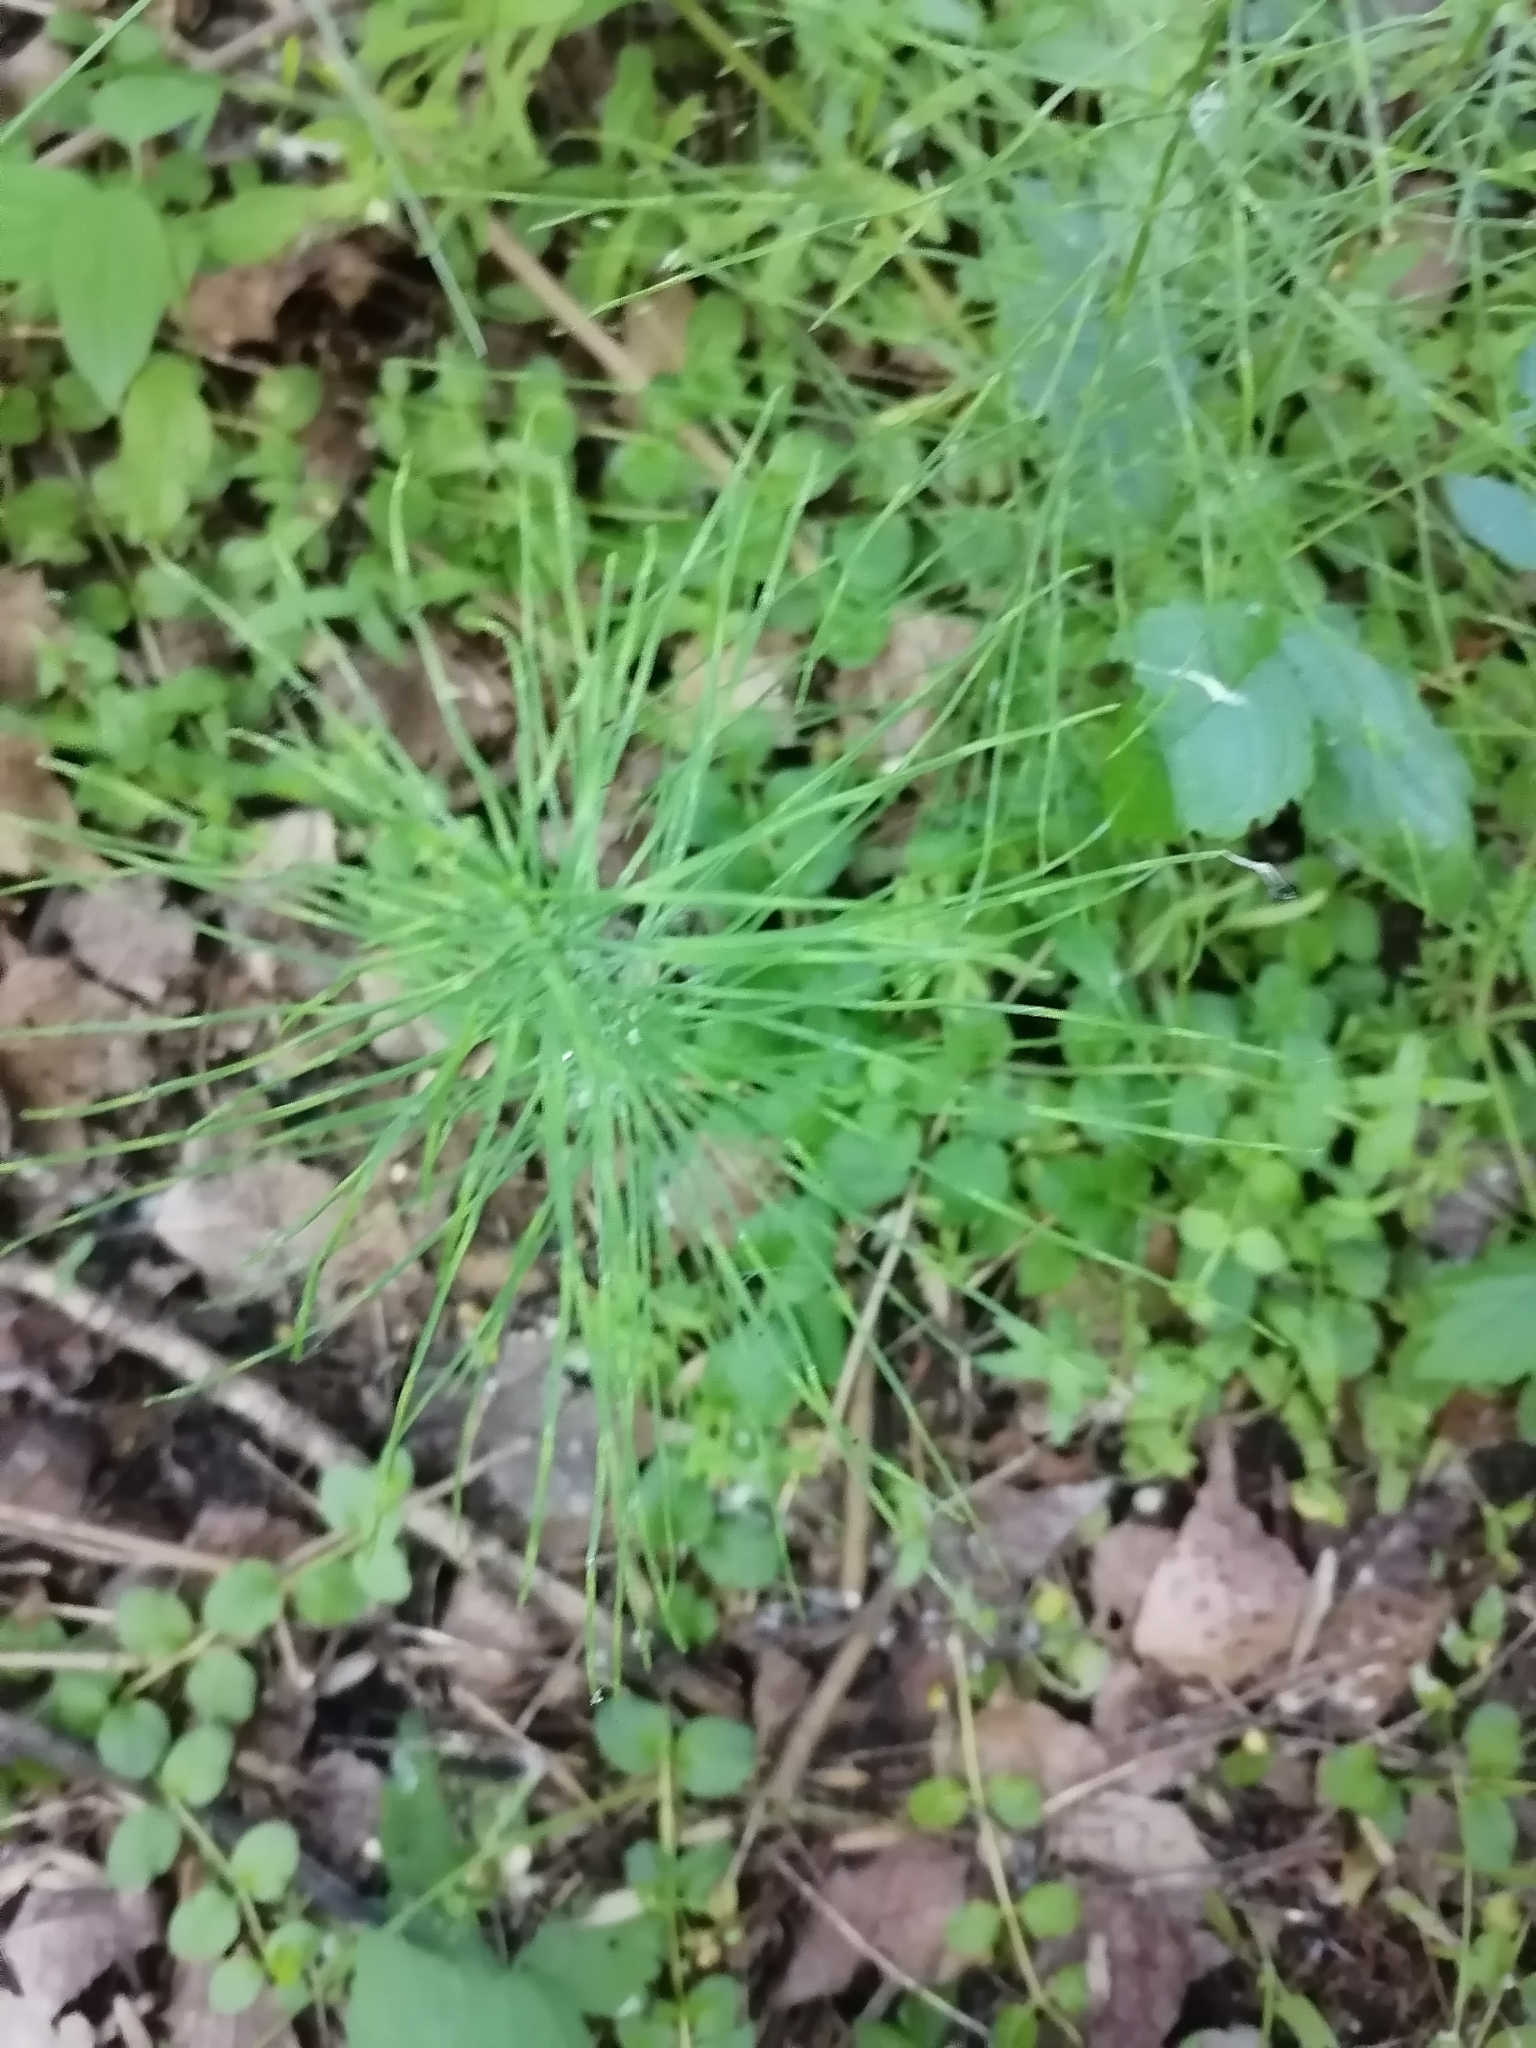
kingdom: Plantae
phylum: Tracheophyta
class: Polypodiopsida
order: Equisetales
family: Equisetaceae
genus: Equisetum
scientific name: Equisetum arvense
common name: Field horsetail
